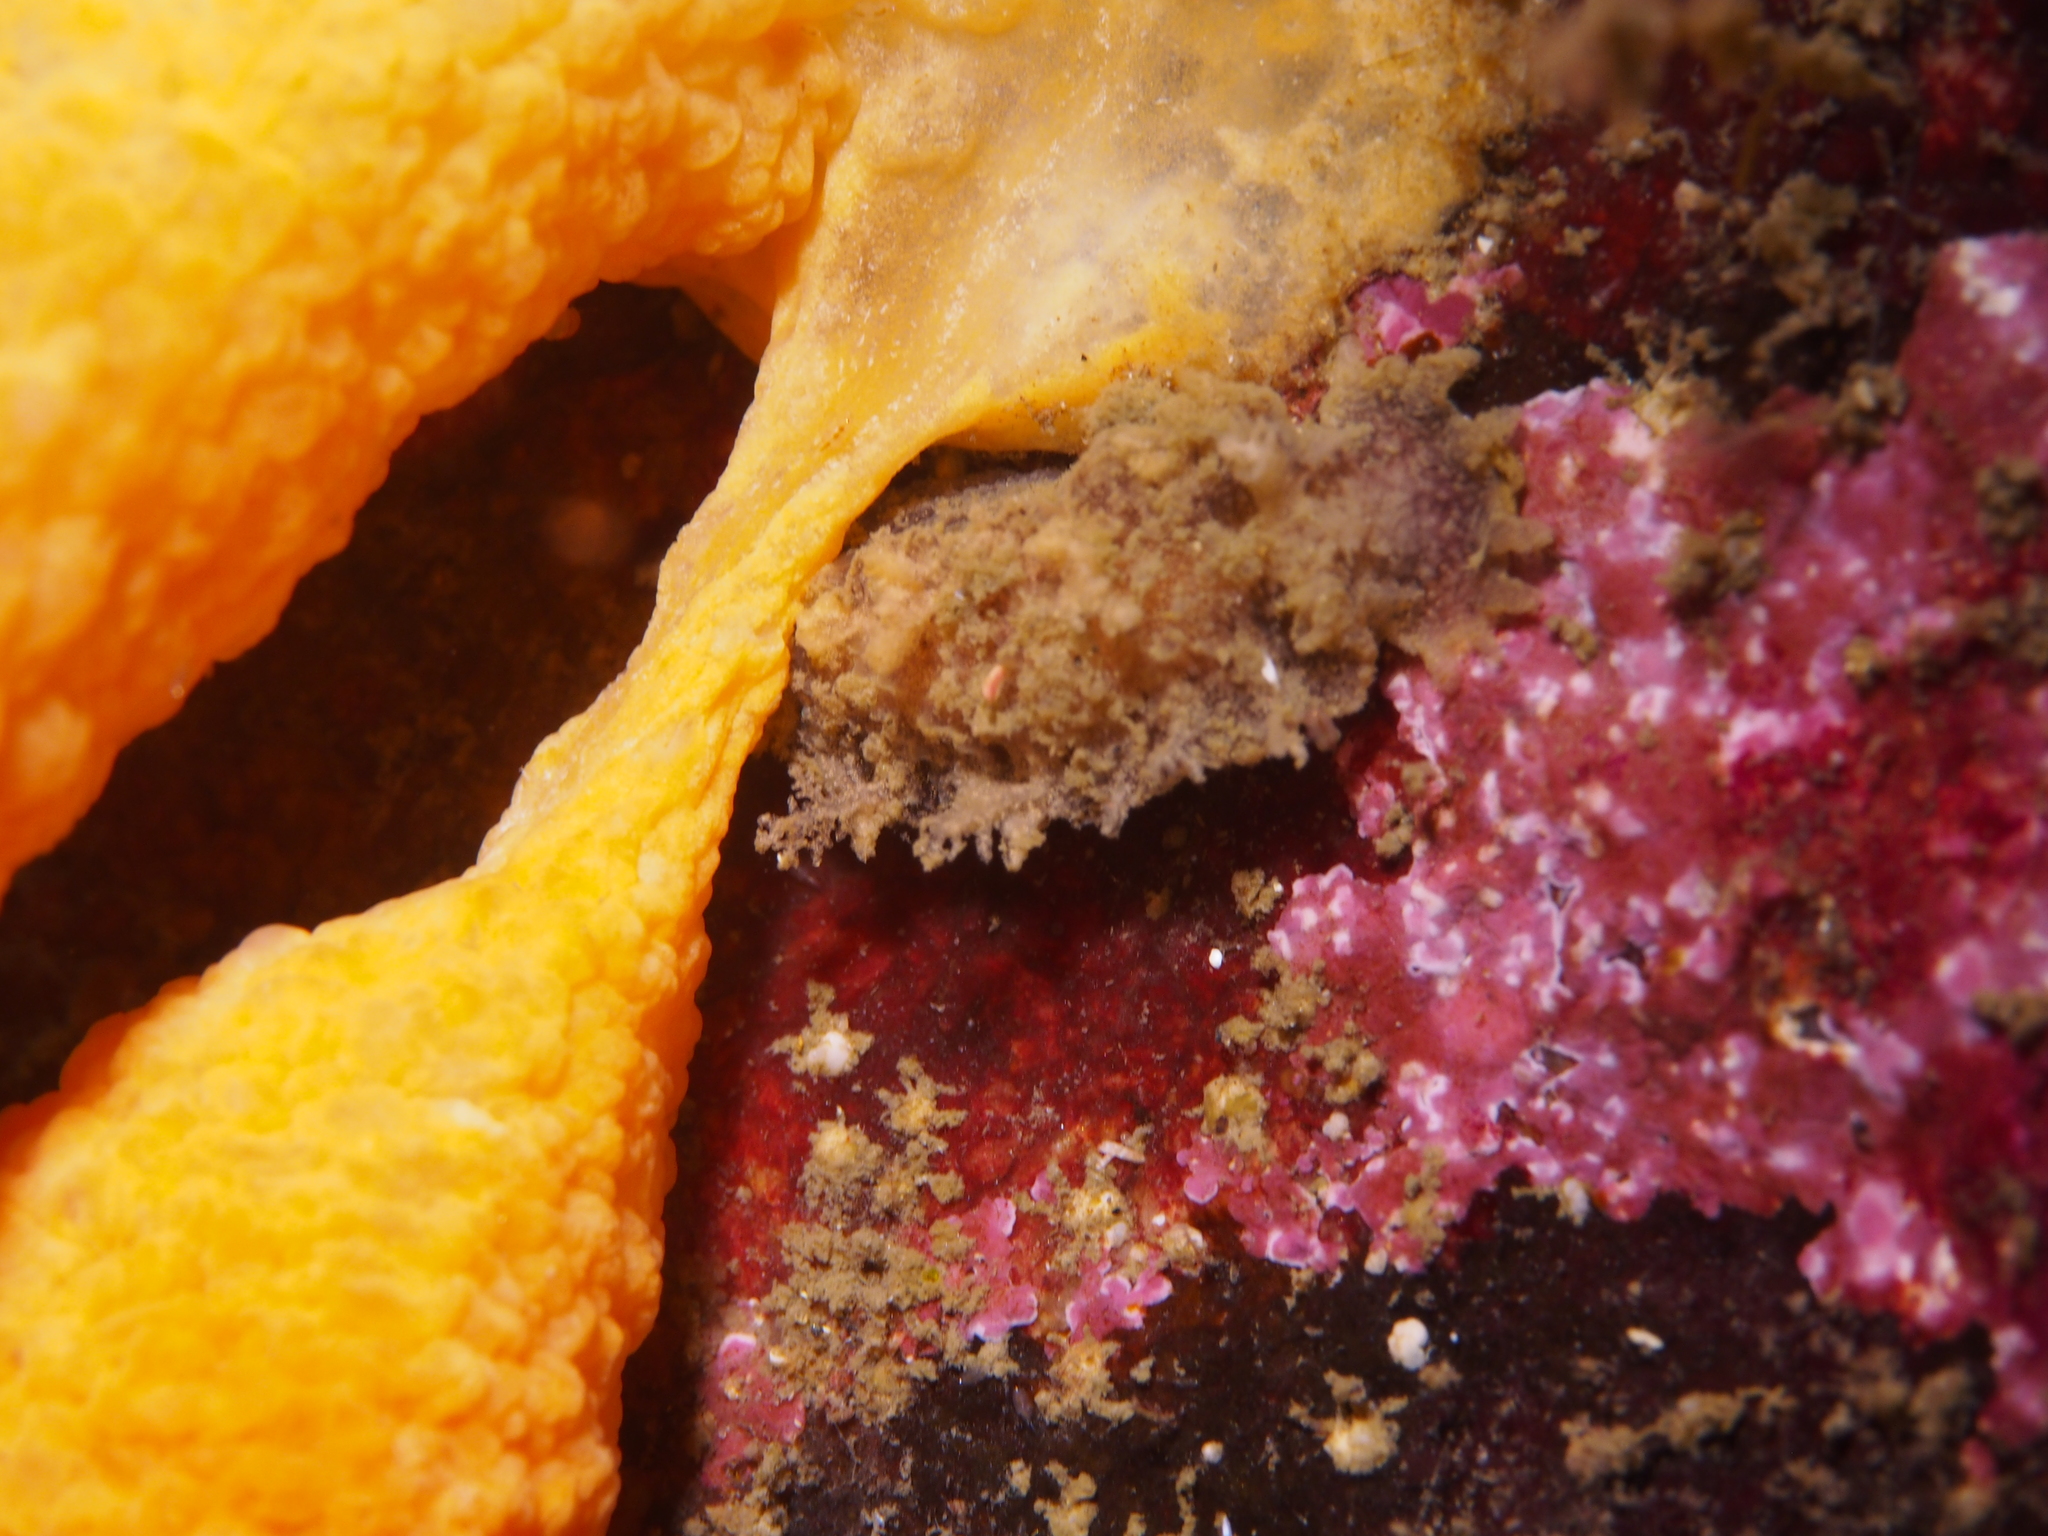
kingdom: Animalia
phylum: Mollusca
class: Gastropoda
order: Nudibranchia
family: Tritoniidae
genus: Duvaucelia
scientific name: Duvaucelia plebeia
